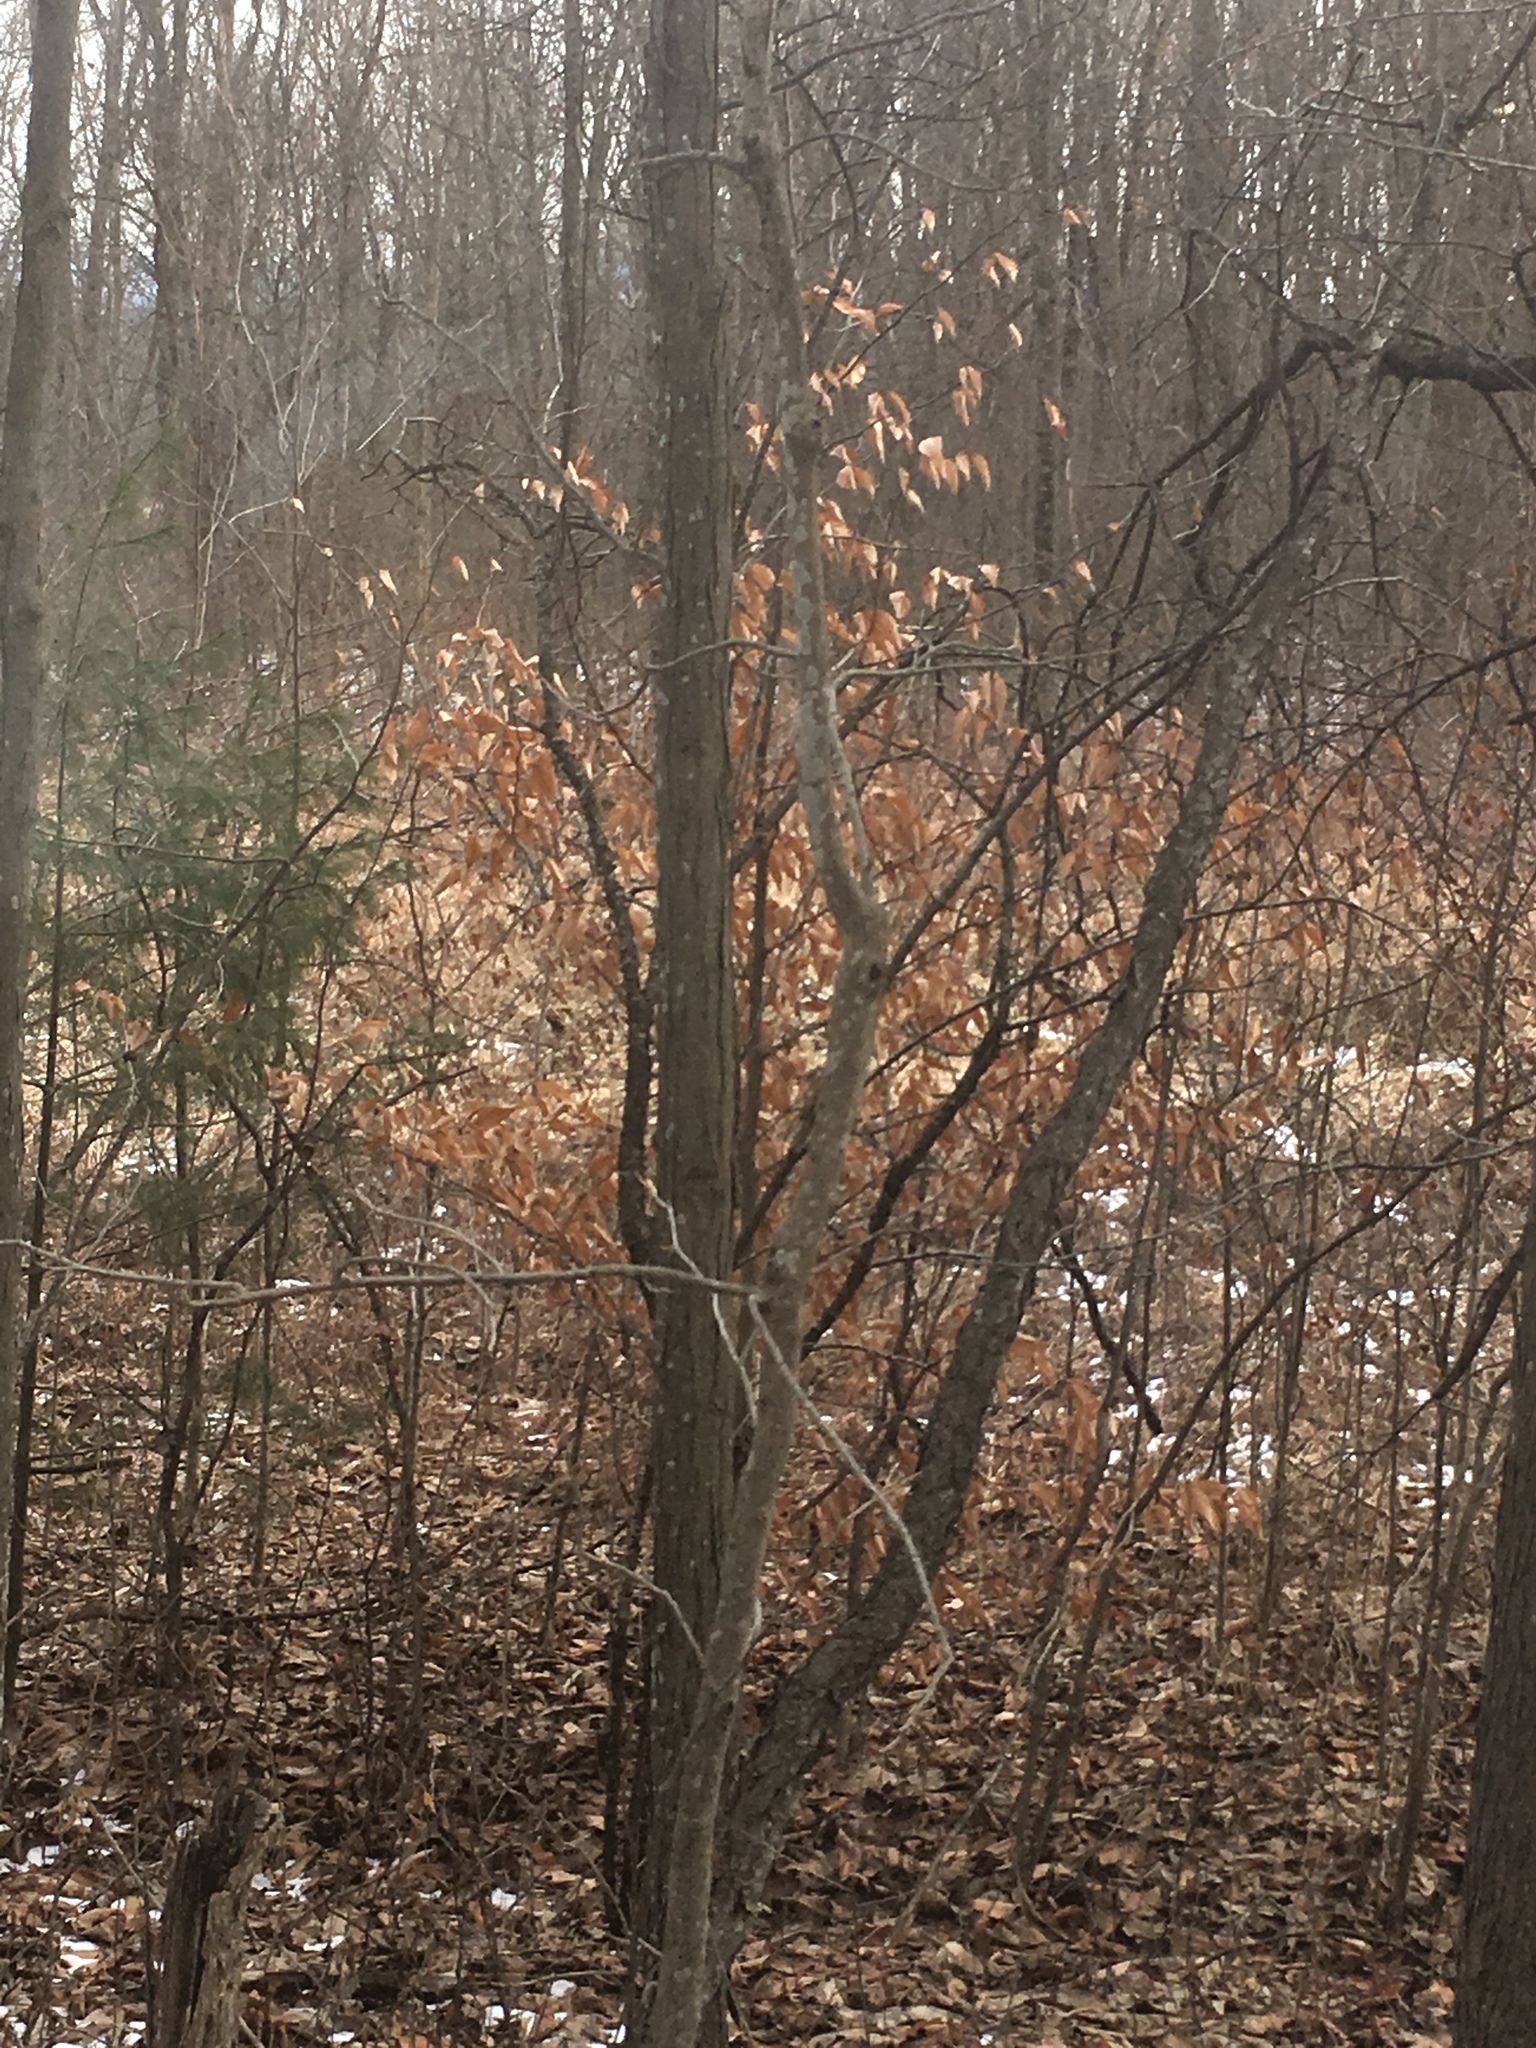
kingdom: Plantae
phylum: Tracheophyta
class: Magnoliopsida
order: Fagales
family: Fagaceae
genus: Fagus
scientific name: Fagus grandifolia
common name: American beech
